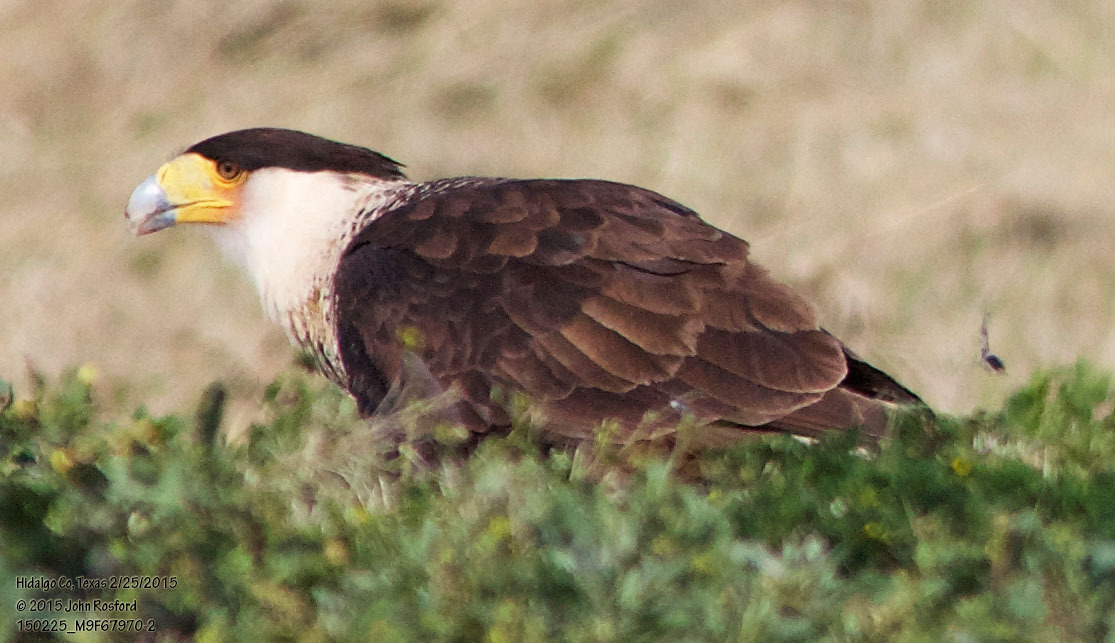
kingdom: Animalia
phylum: Chordata
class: Aves
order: Falconiformes
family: Falconidae
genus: Caracara
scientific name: Caracara plancus
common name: Southern caracara
